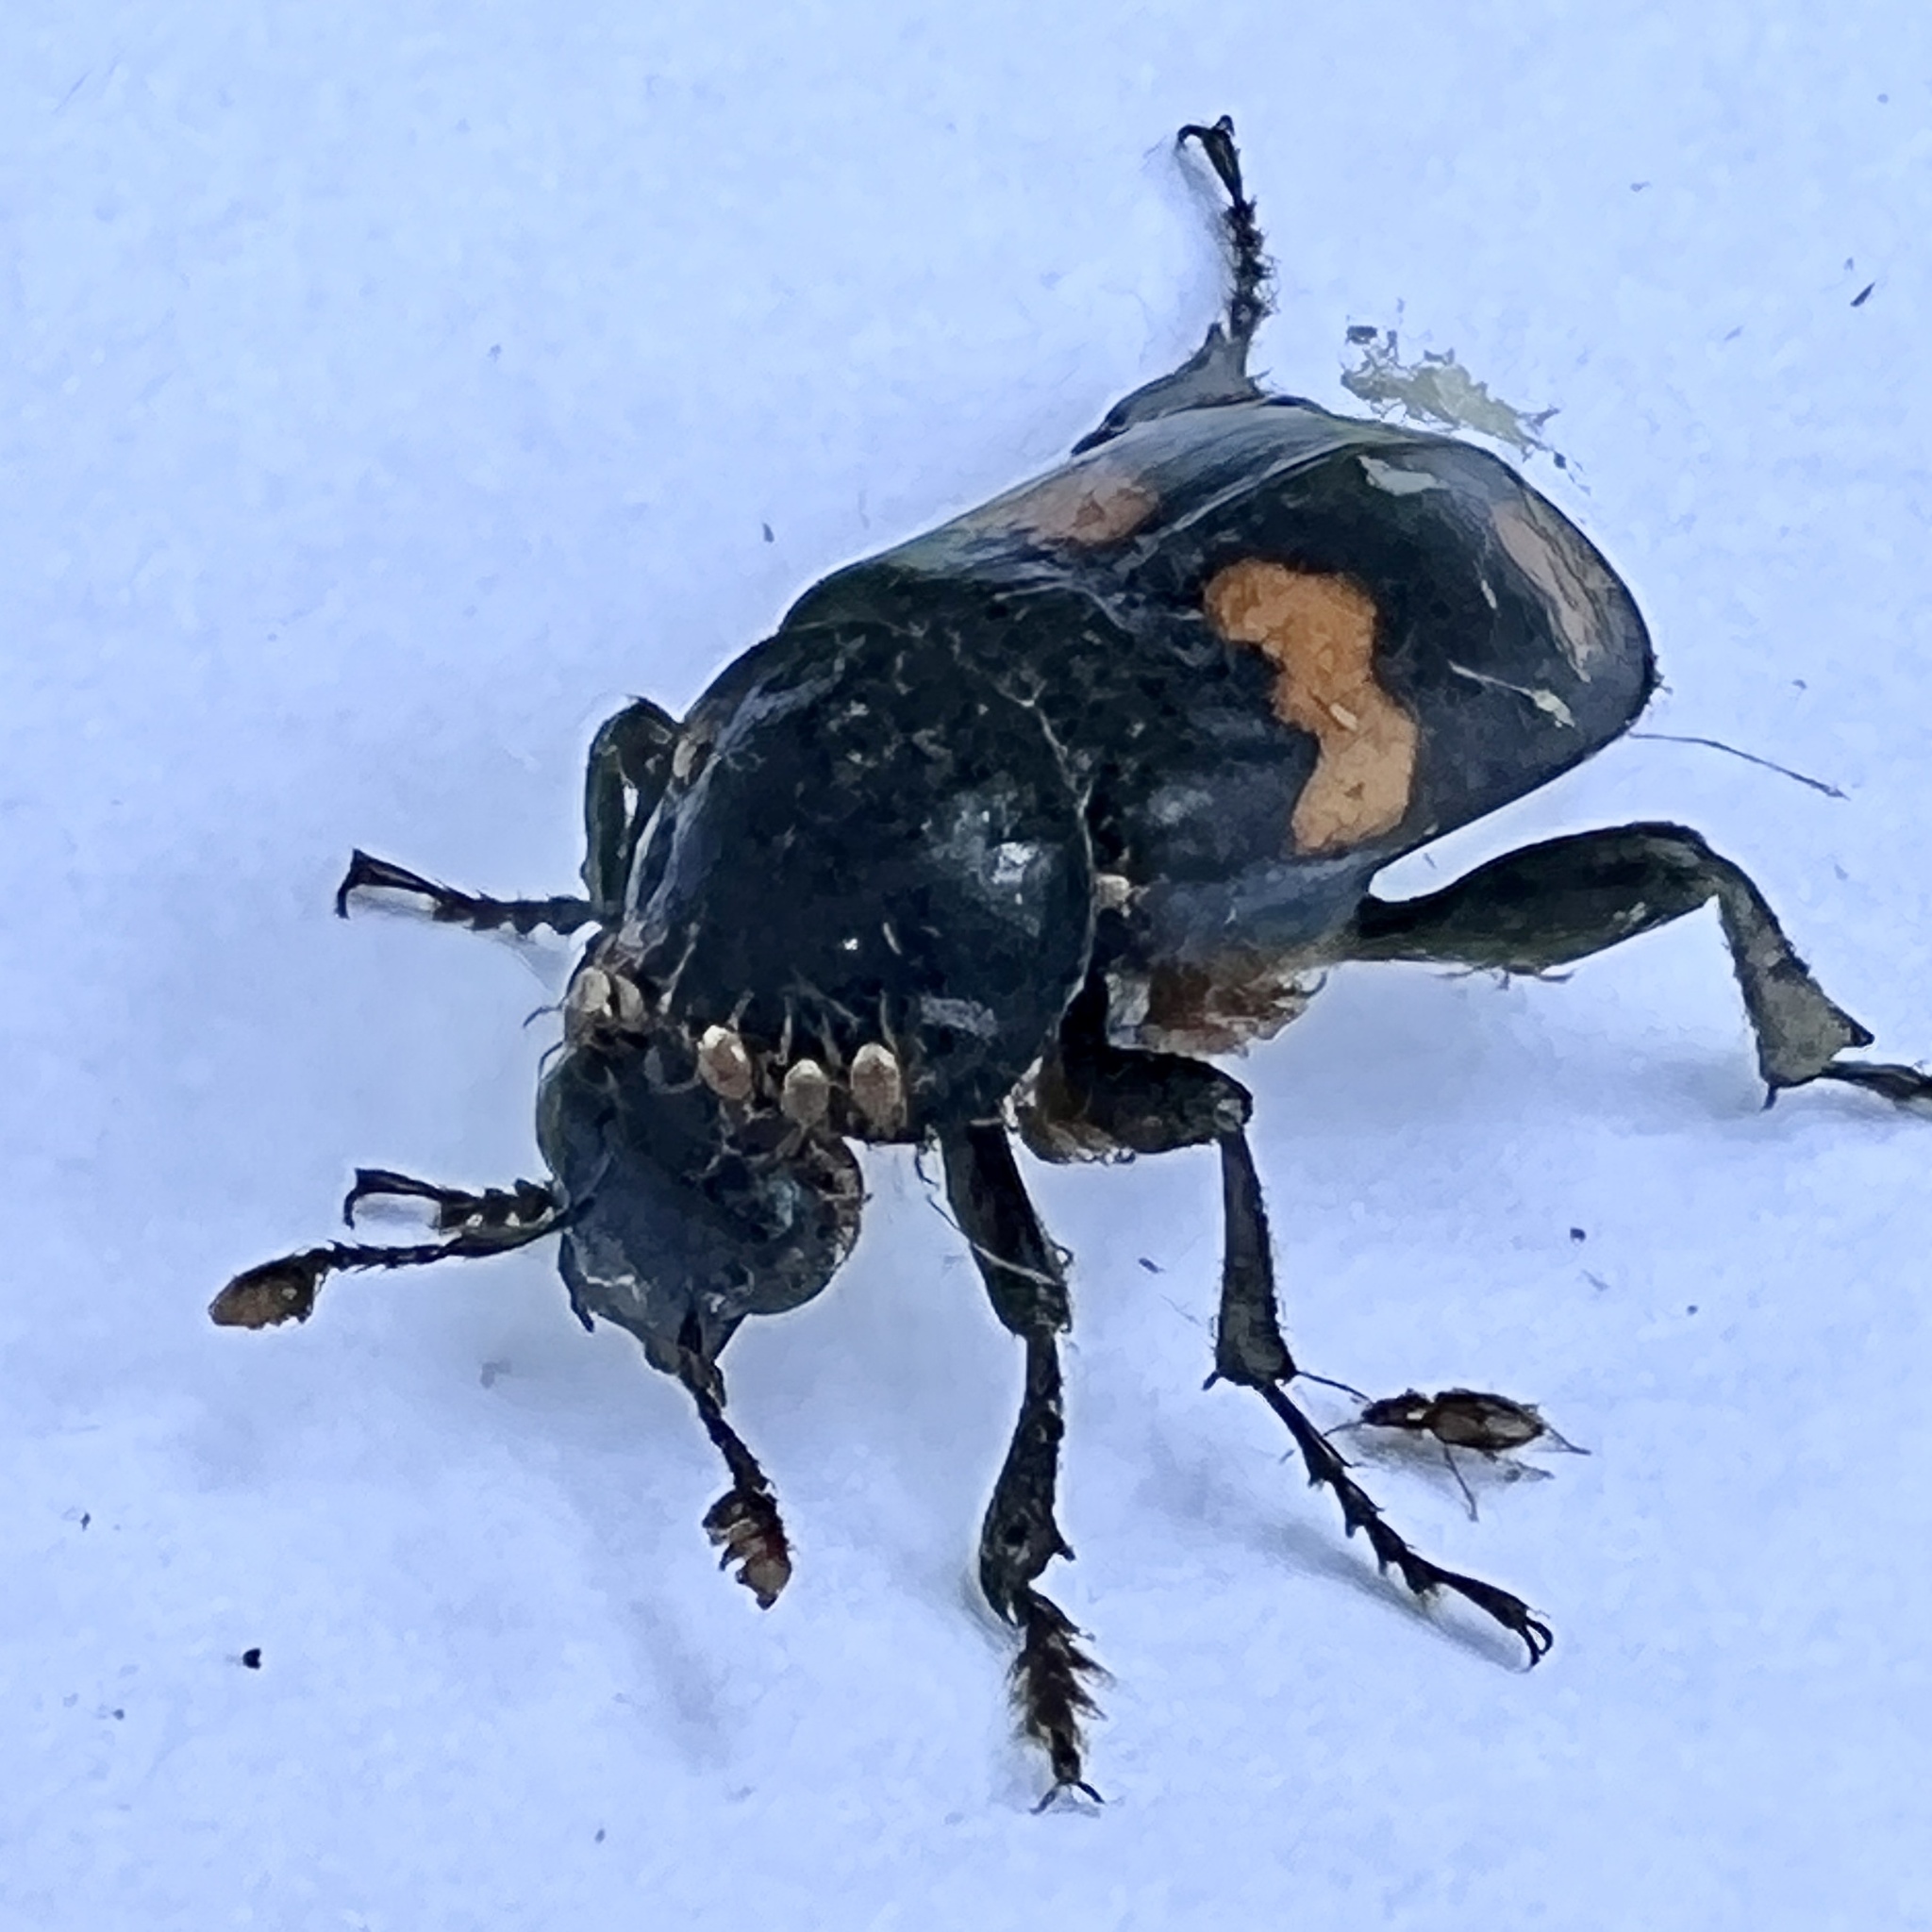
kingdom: Animalia
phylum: Arthropoda
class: Insecta
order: Coleoptera
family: Staphylinidae
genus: Nicrophorus
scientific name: Nicrophorus orbicollis
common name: Roundneck sexton beetle
